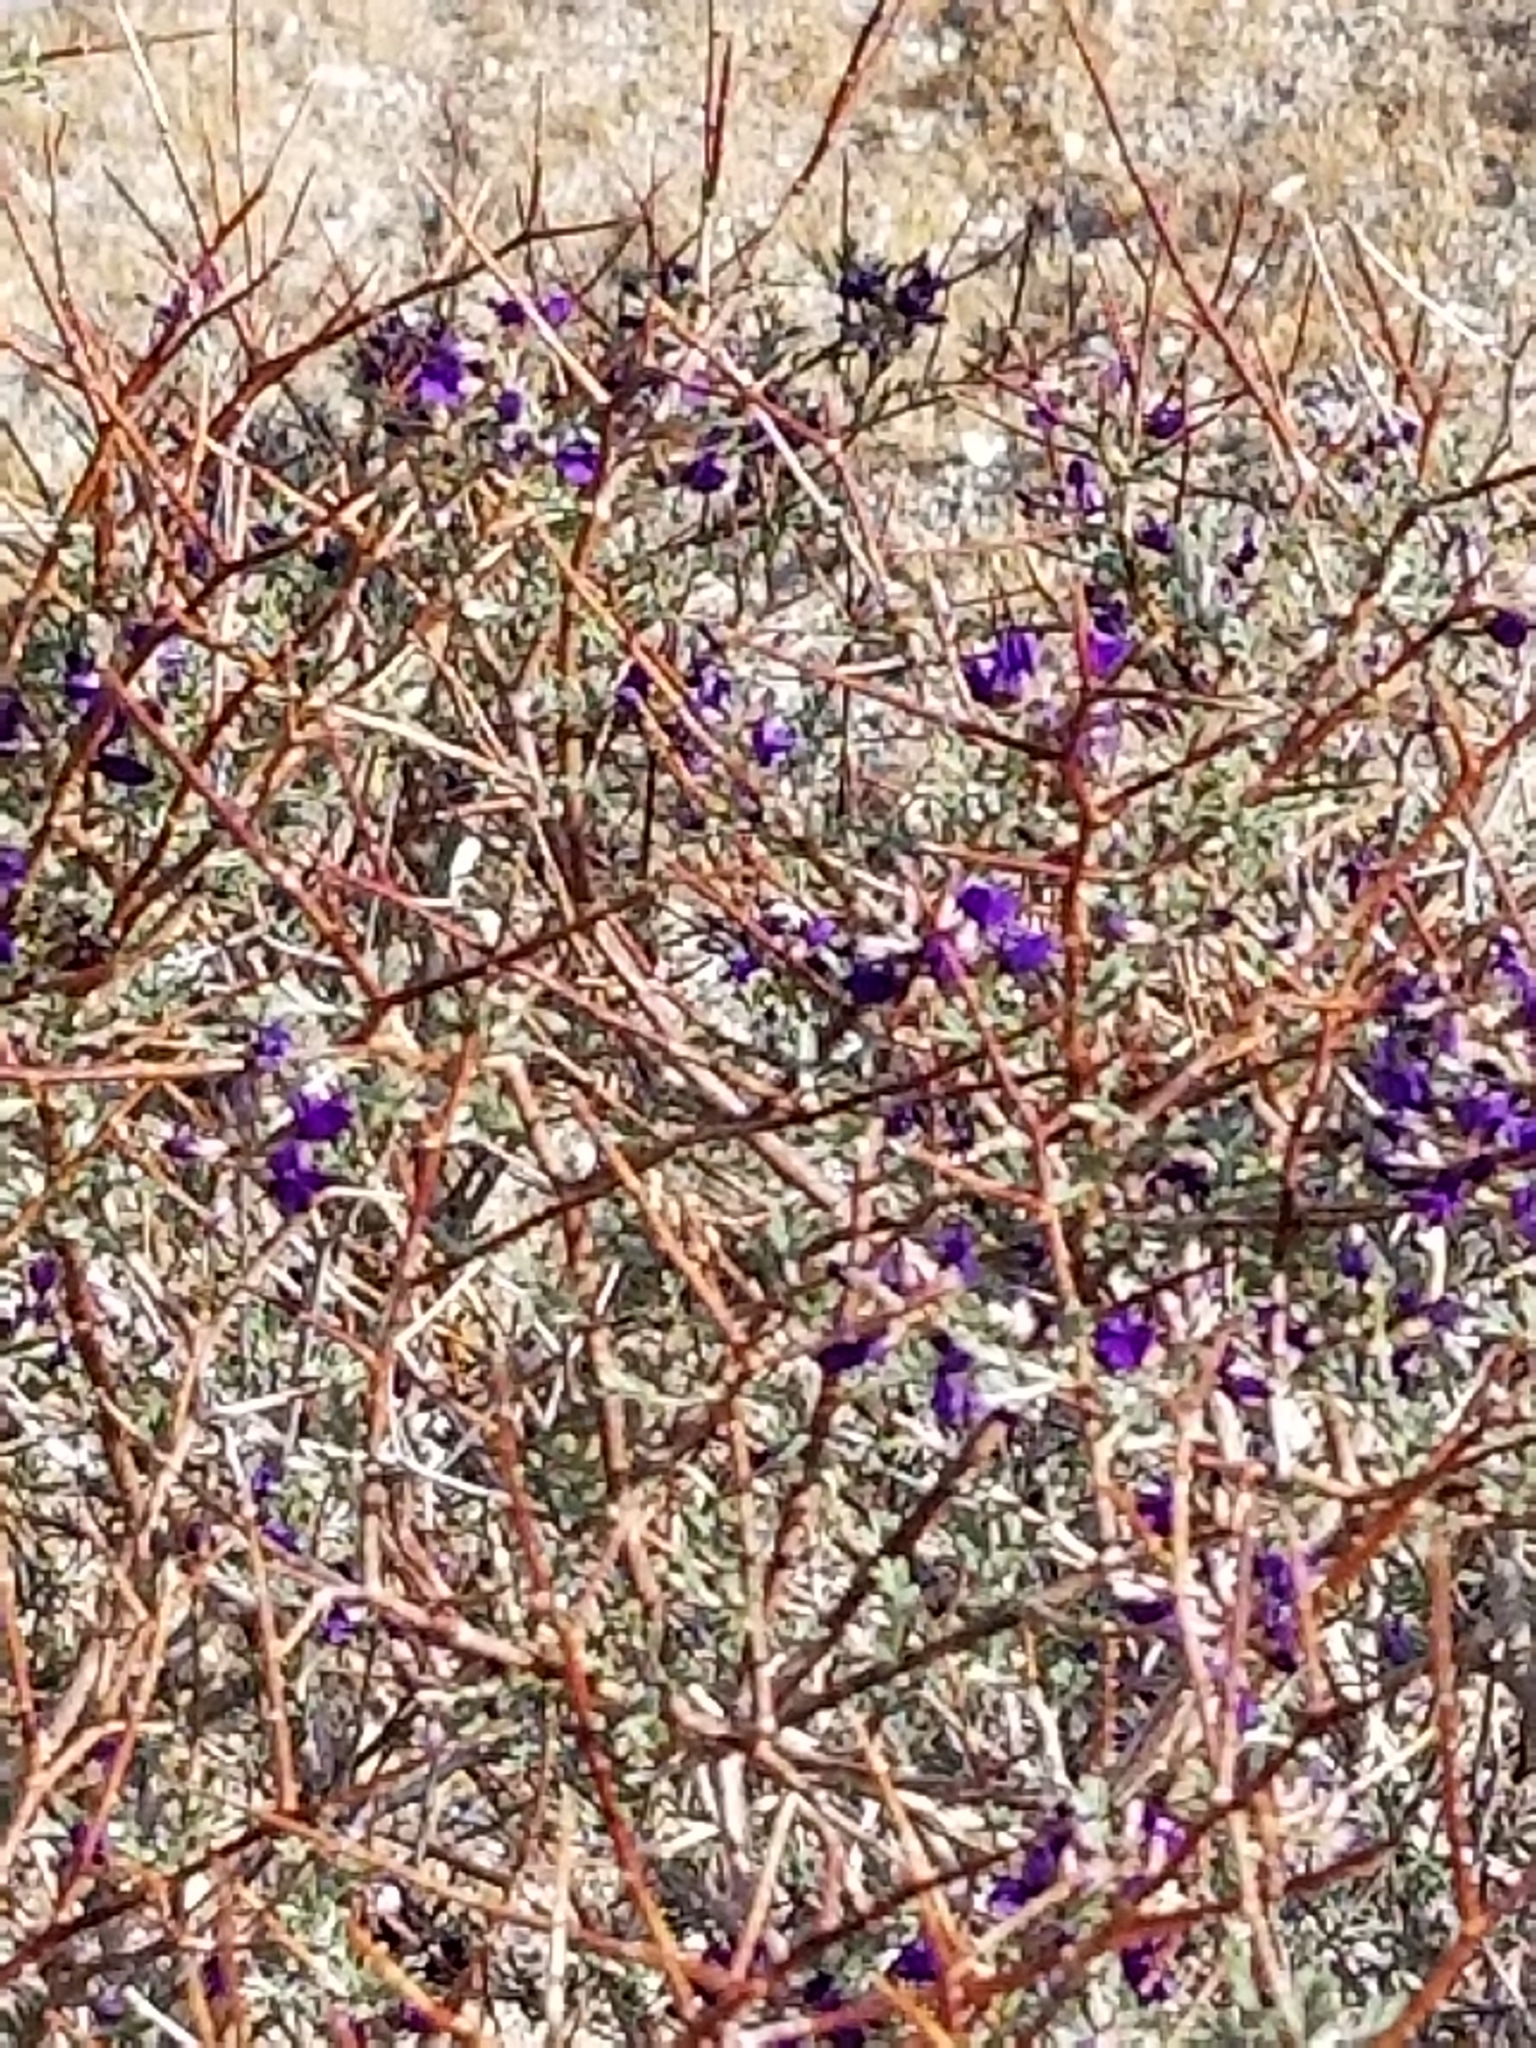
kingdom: Plantae
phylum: Tracheophyta
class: Magnoliopsida
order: Fabales
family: Fabaceae
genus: Psorothamnus
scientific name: Psorothamnus arborescens
